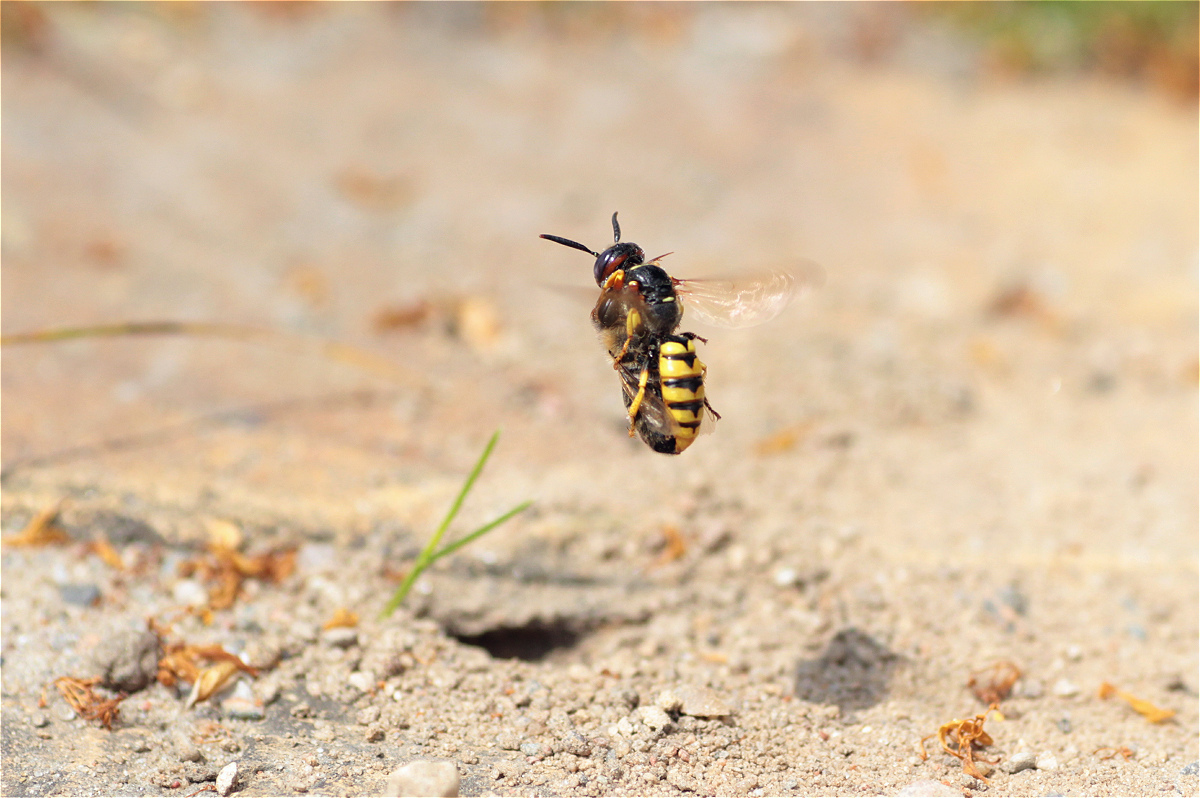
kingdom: Animalia
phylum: Arthropoda
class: Insecta
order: Hymenoptera
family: Crabronidae
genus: Philanthus
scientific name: Philanthus triangulum
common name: Bee wolf
